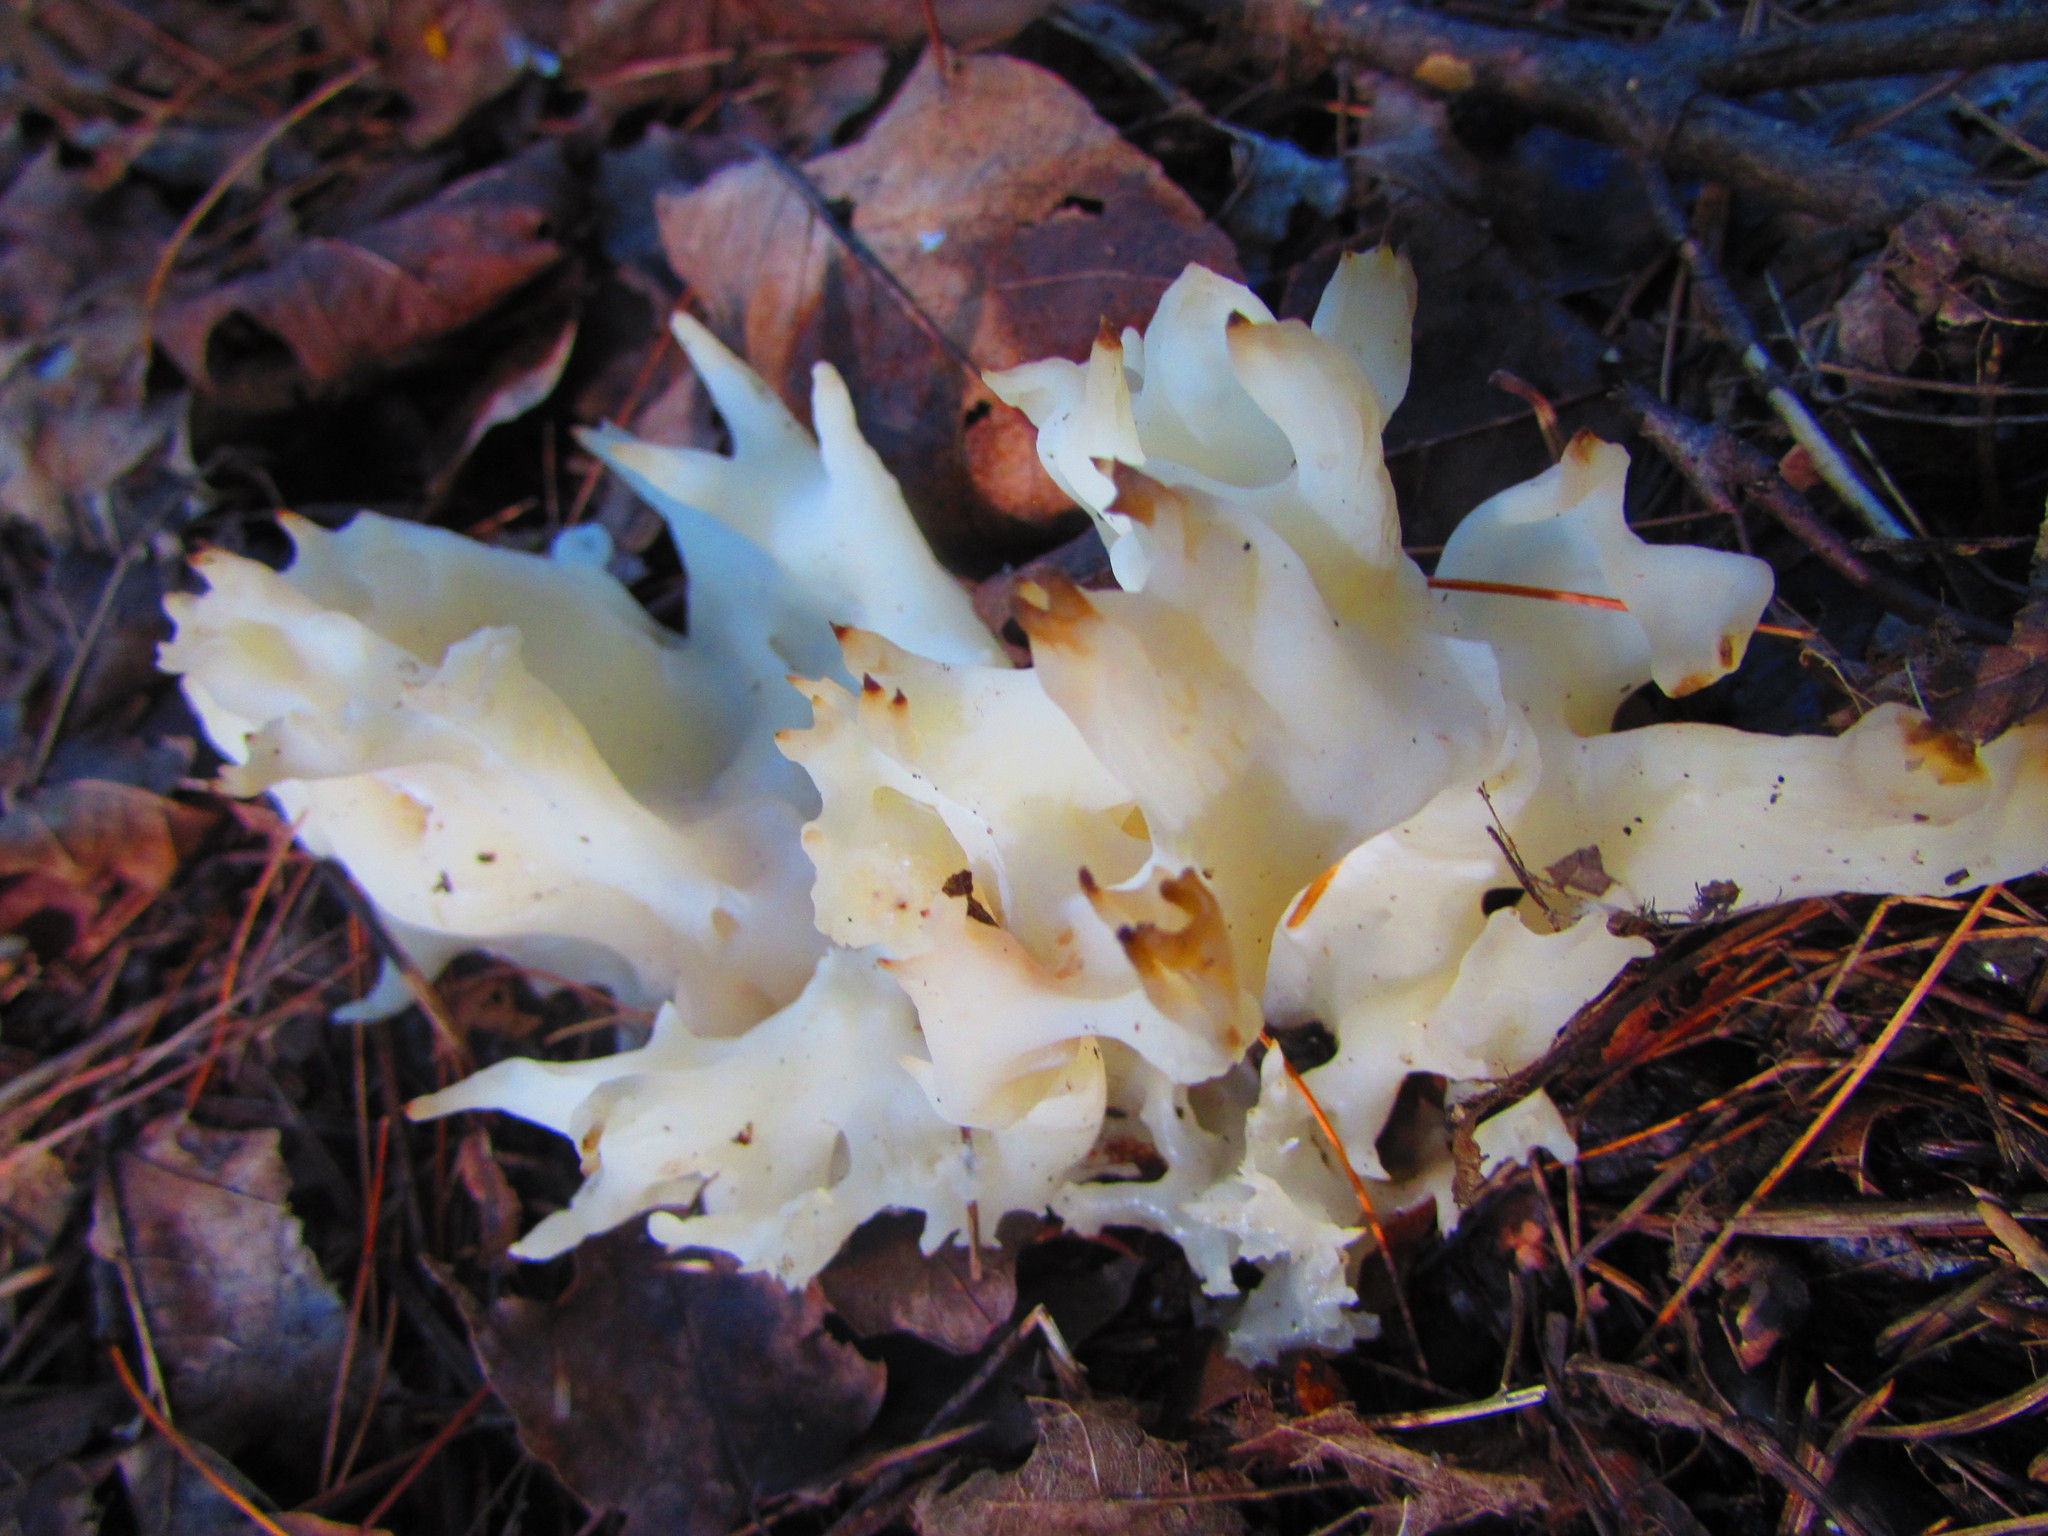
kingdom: Fungi
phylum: Basidiomycota
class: Agaricomycetes
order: Sebacinales
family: Sebacinaceae
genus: Sebacina
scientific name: Sebacina sparassoidea
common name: White coral jelly fungus
